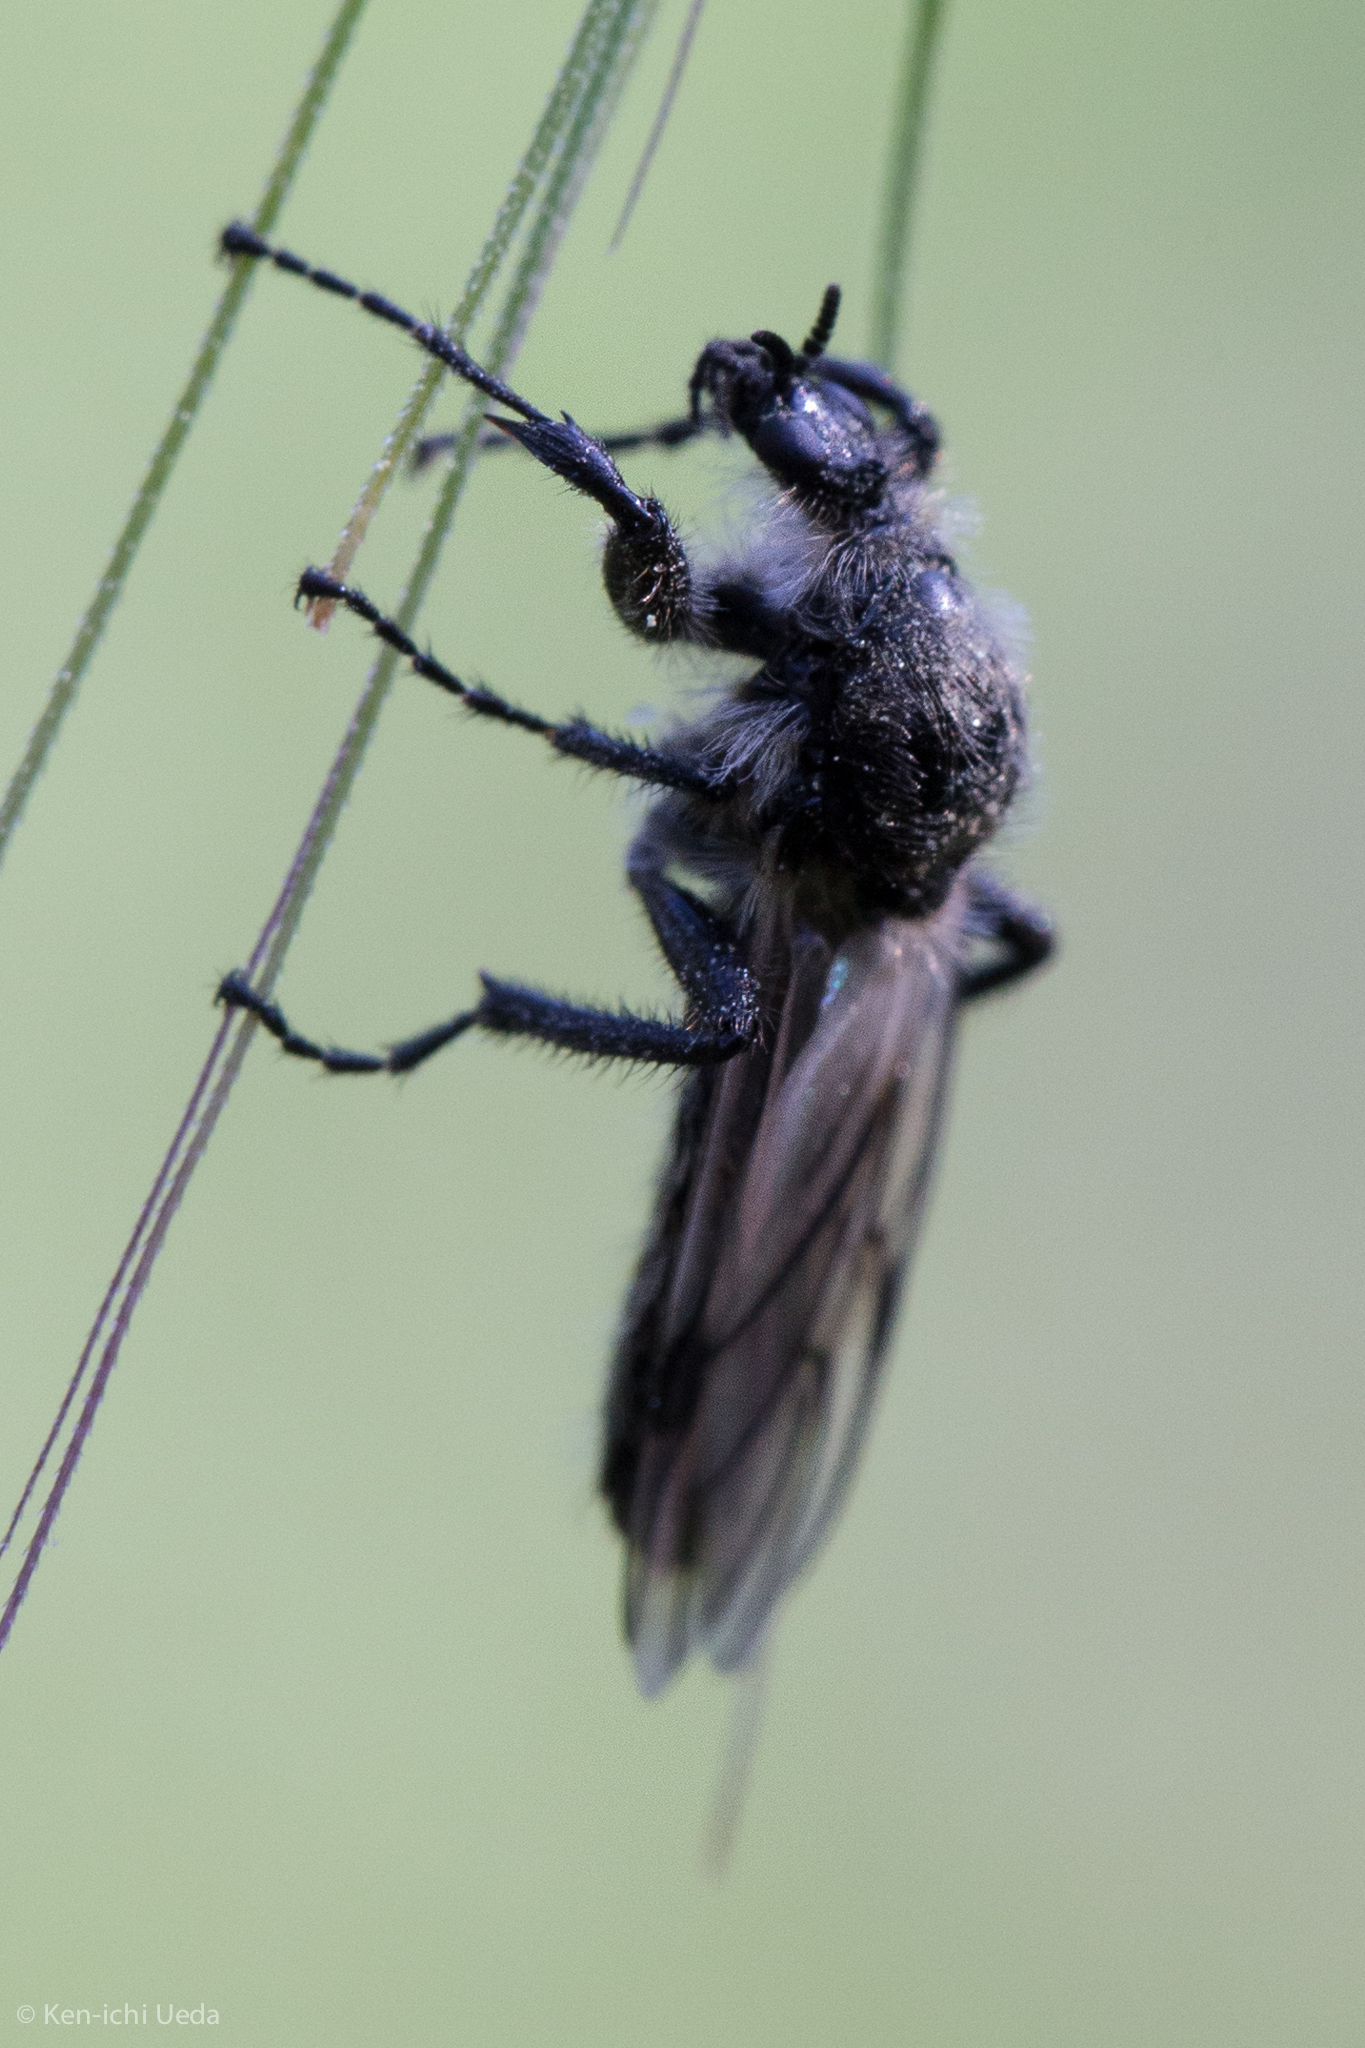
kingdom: Animalia
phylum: Arthropoda
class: Insecta
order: Diptera
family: Bibionidae
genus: Bibio
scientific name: Bibio albipennis
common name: White-winged march fly
